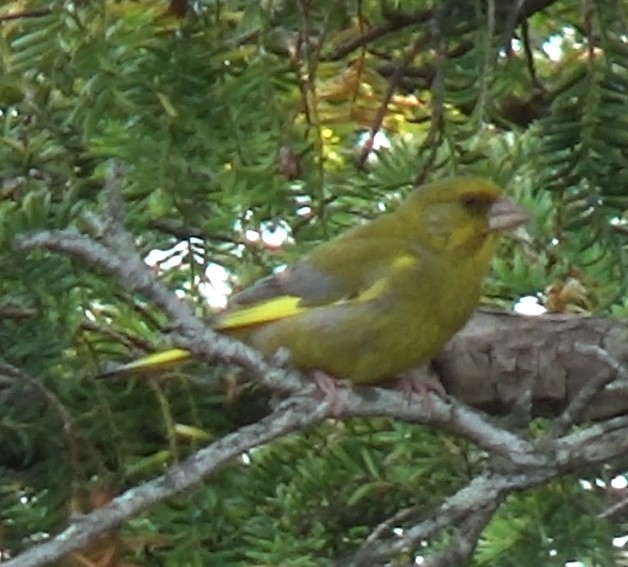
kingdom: Plantae
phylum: Tracheophyta
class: Liliopsida
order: Poales
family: Poaceae
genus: Chloris
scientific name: Chloris chloris
